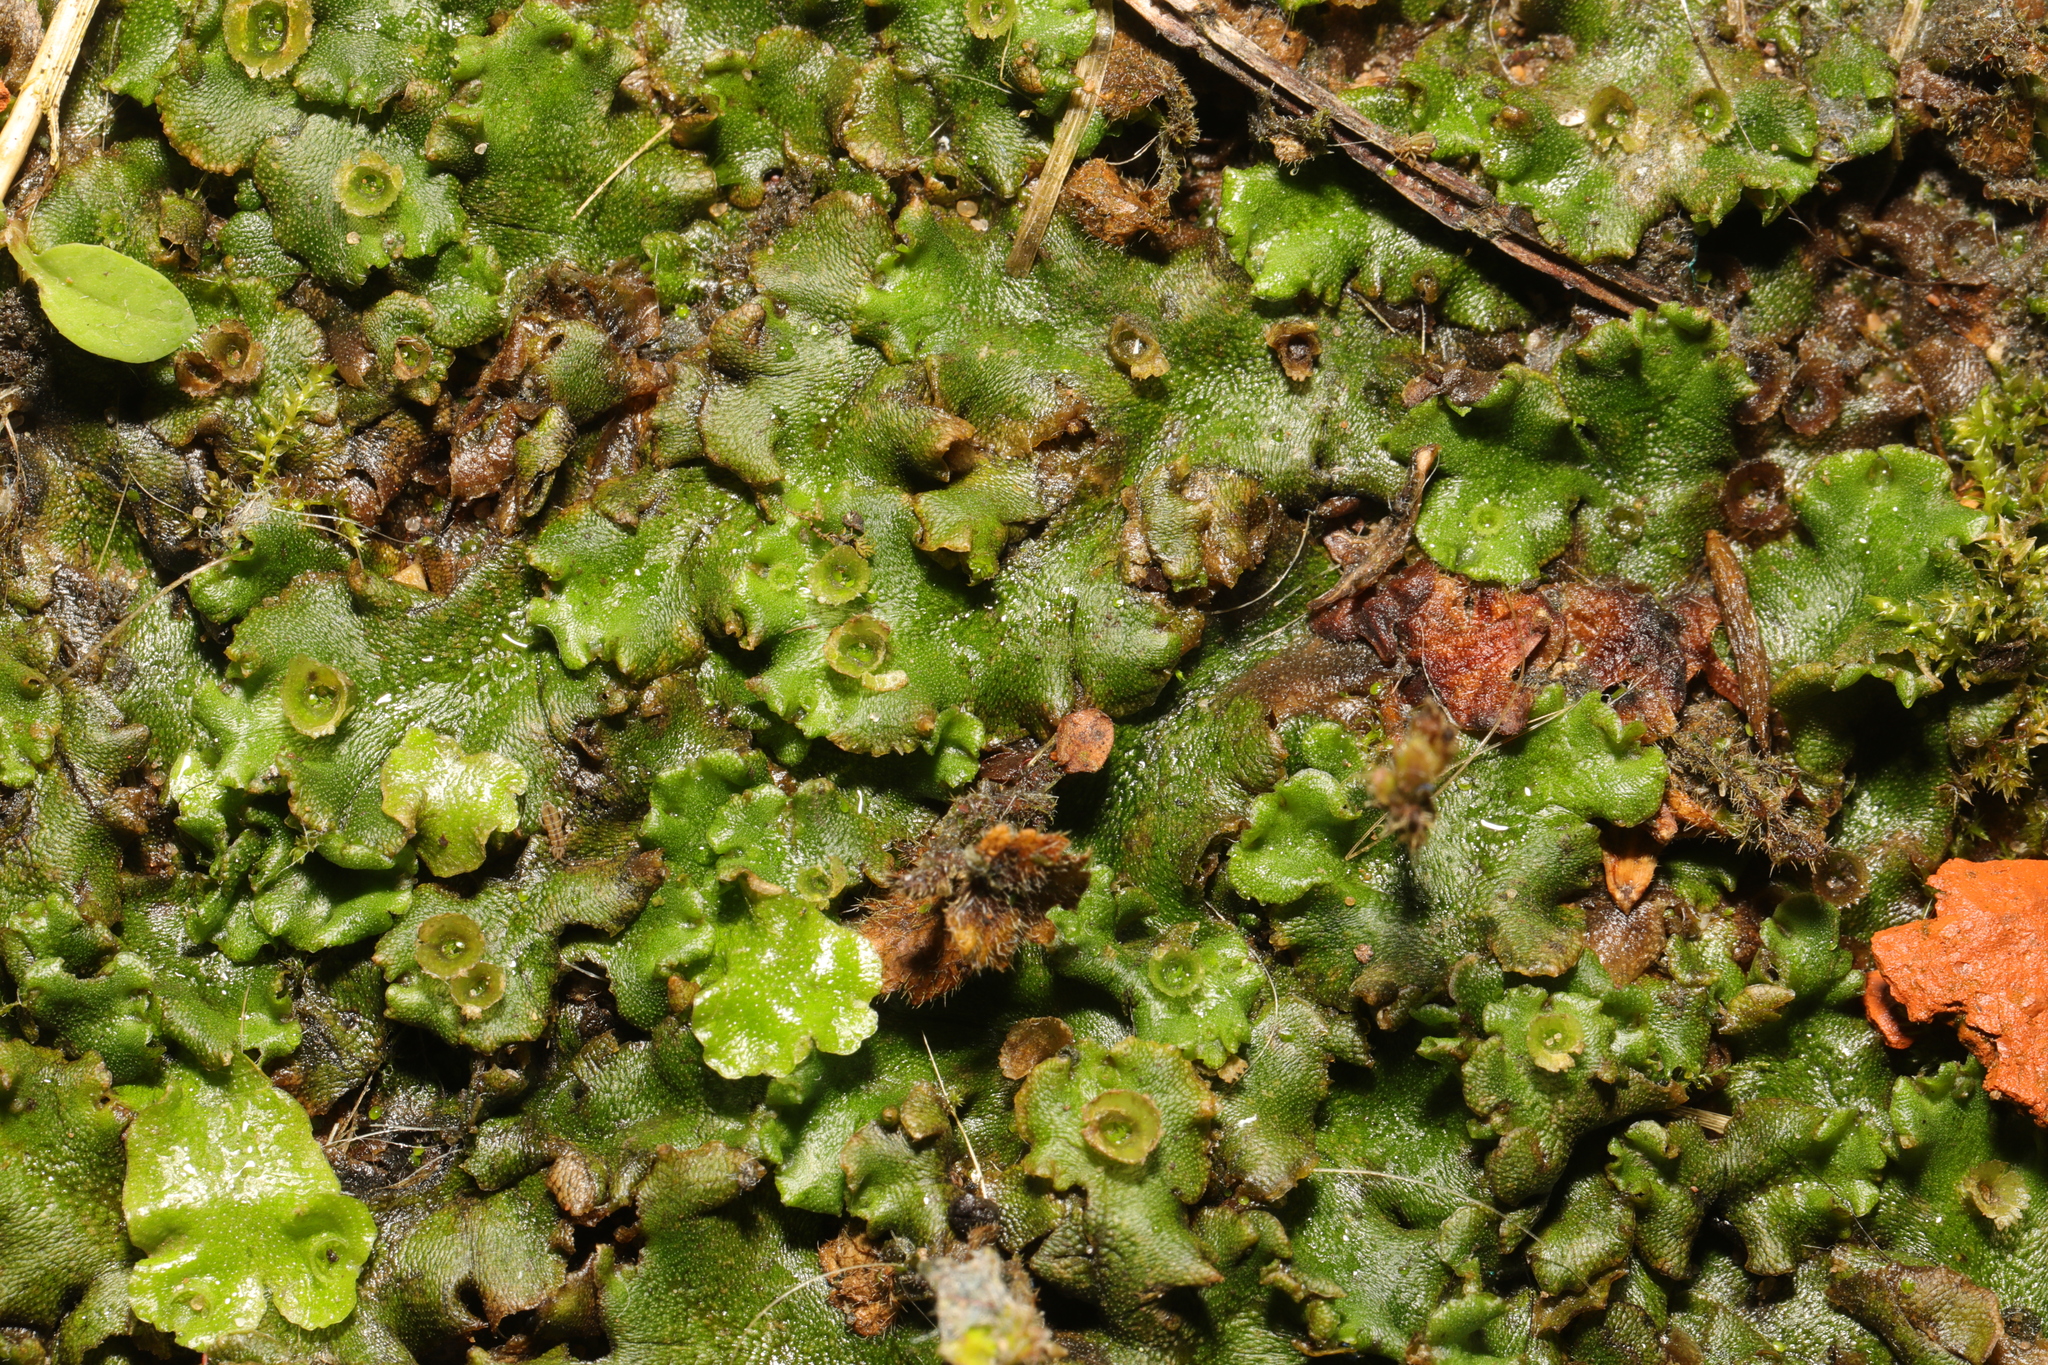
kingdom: Plantae
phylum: Marchantiophyta
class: Marchantiopsida
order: Marchantiales
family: Marchantiaceae
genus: Marchantia
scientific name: Marchantia polymorpha
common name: Common liverwort
